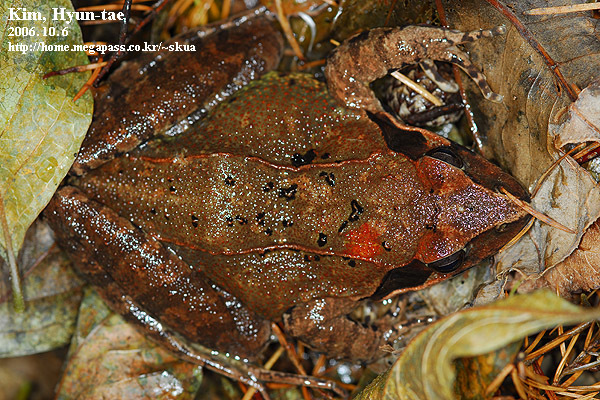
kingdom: Animalia
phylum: Chordata
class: Amphibia
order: Anura
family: Ranidae
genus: Rana
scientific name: Rana uenoi
